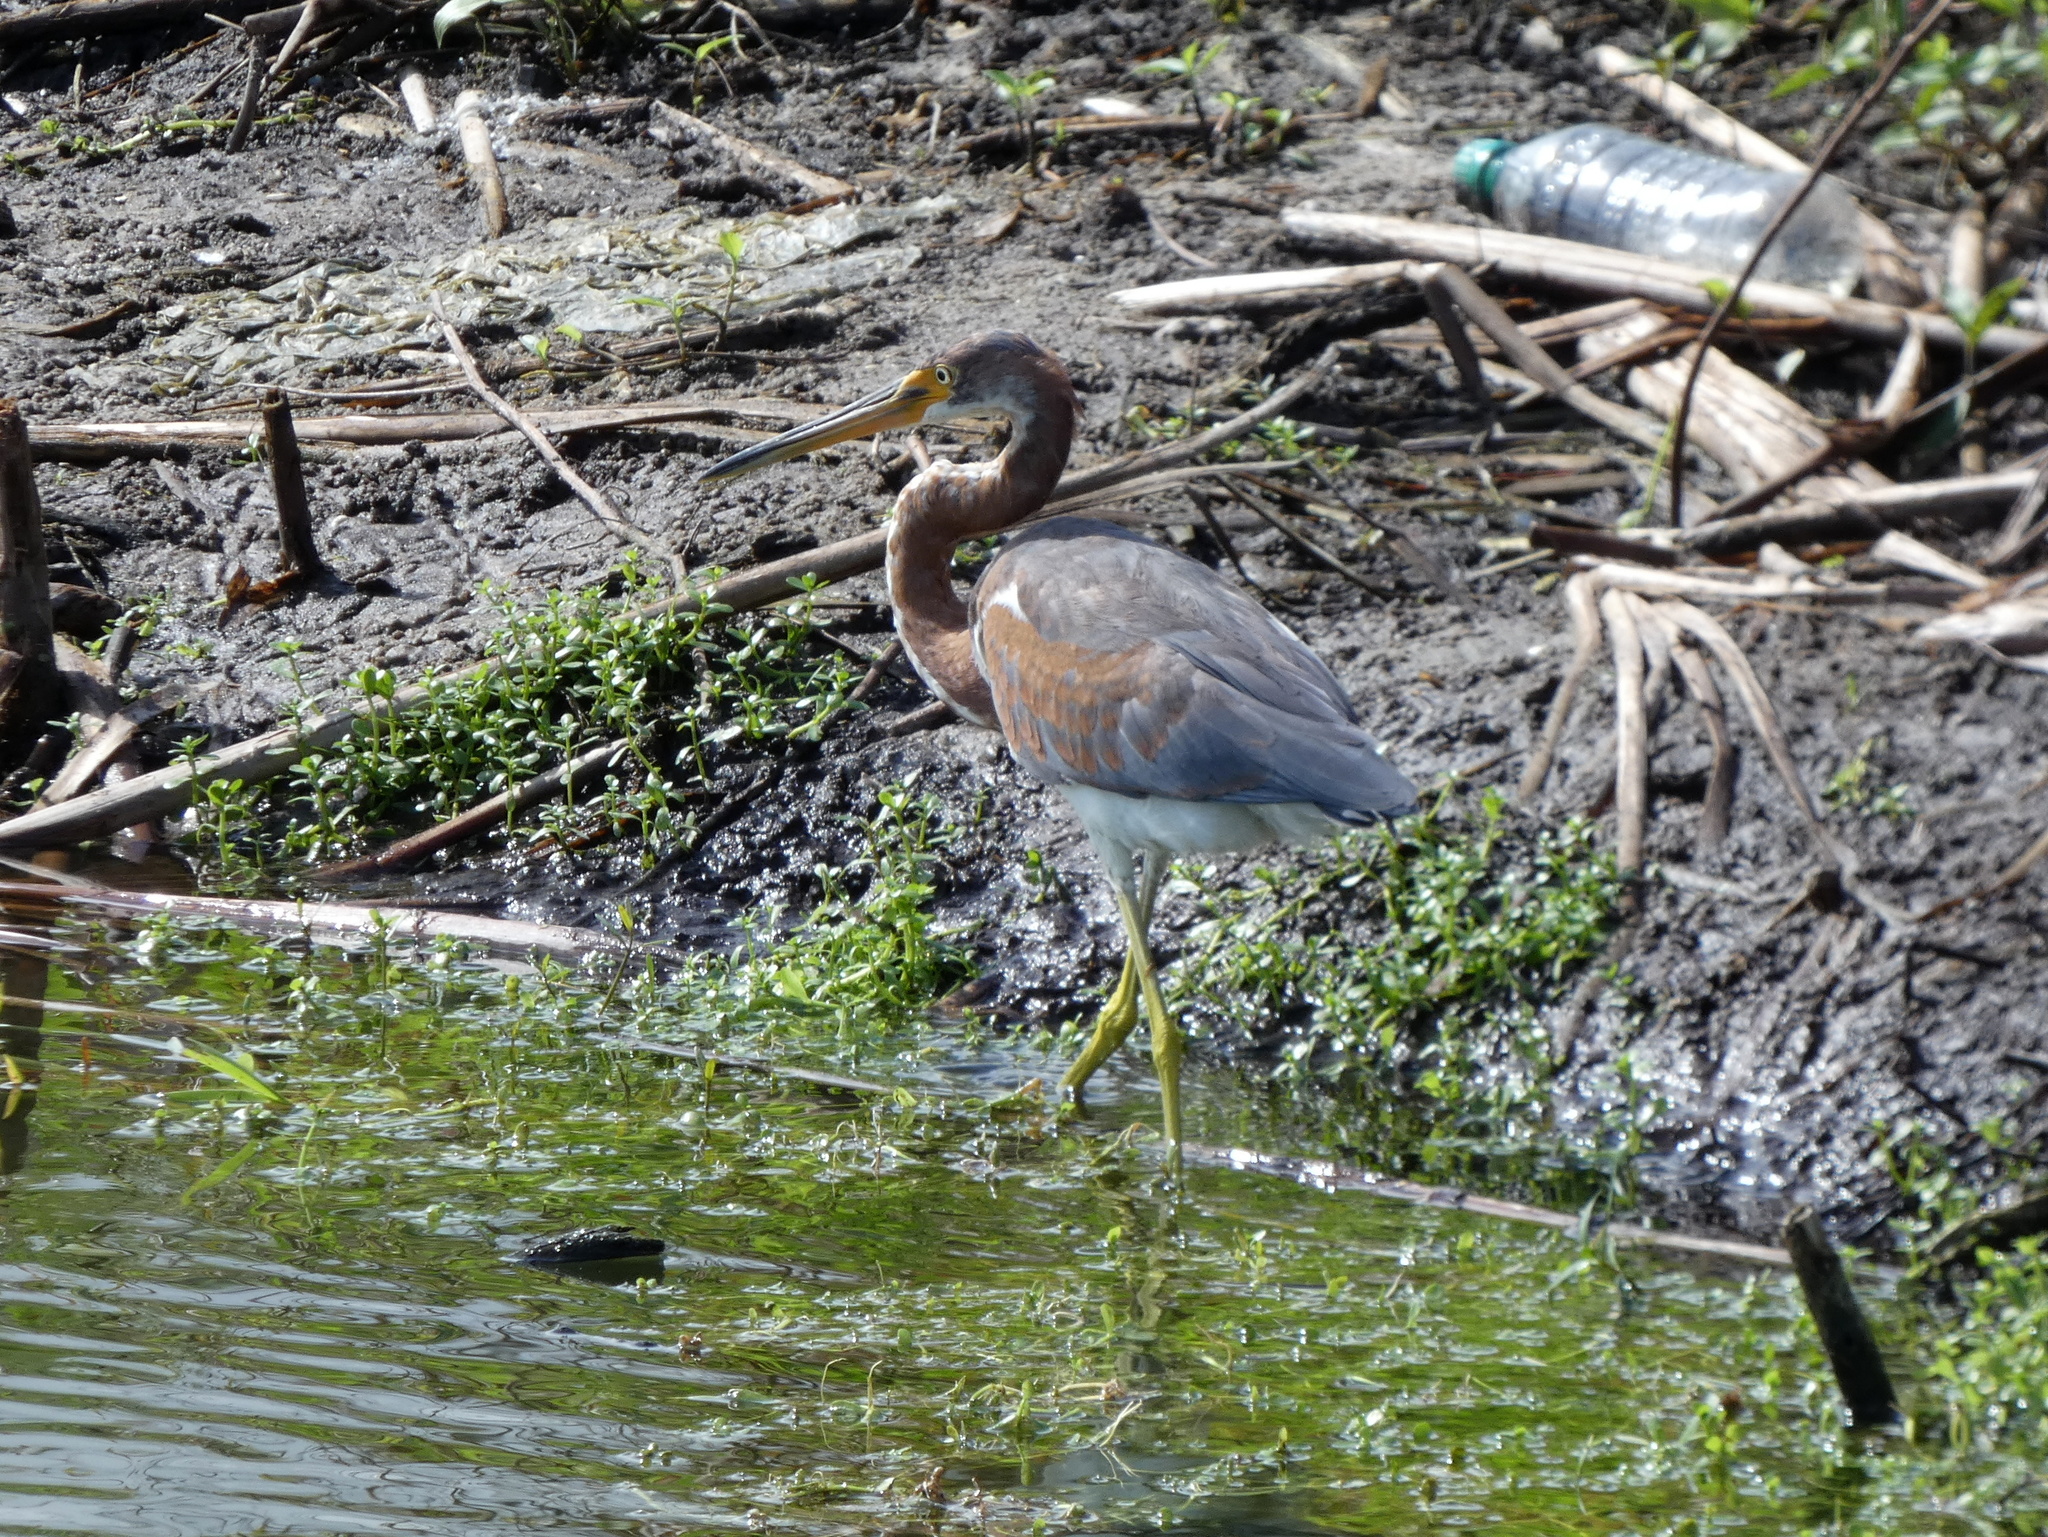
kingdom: Animalia
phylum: Chordata
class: Aves
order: Pelecaniformes
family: Ardeidae
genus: Egretta
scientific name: Egretta tricolor
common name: Tricolored heron
